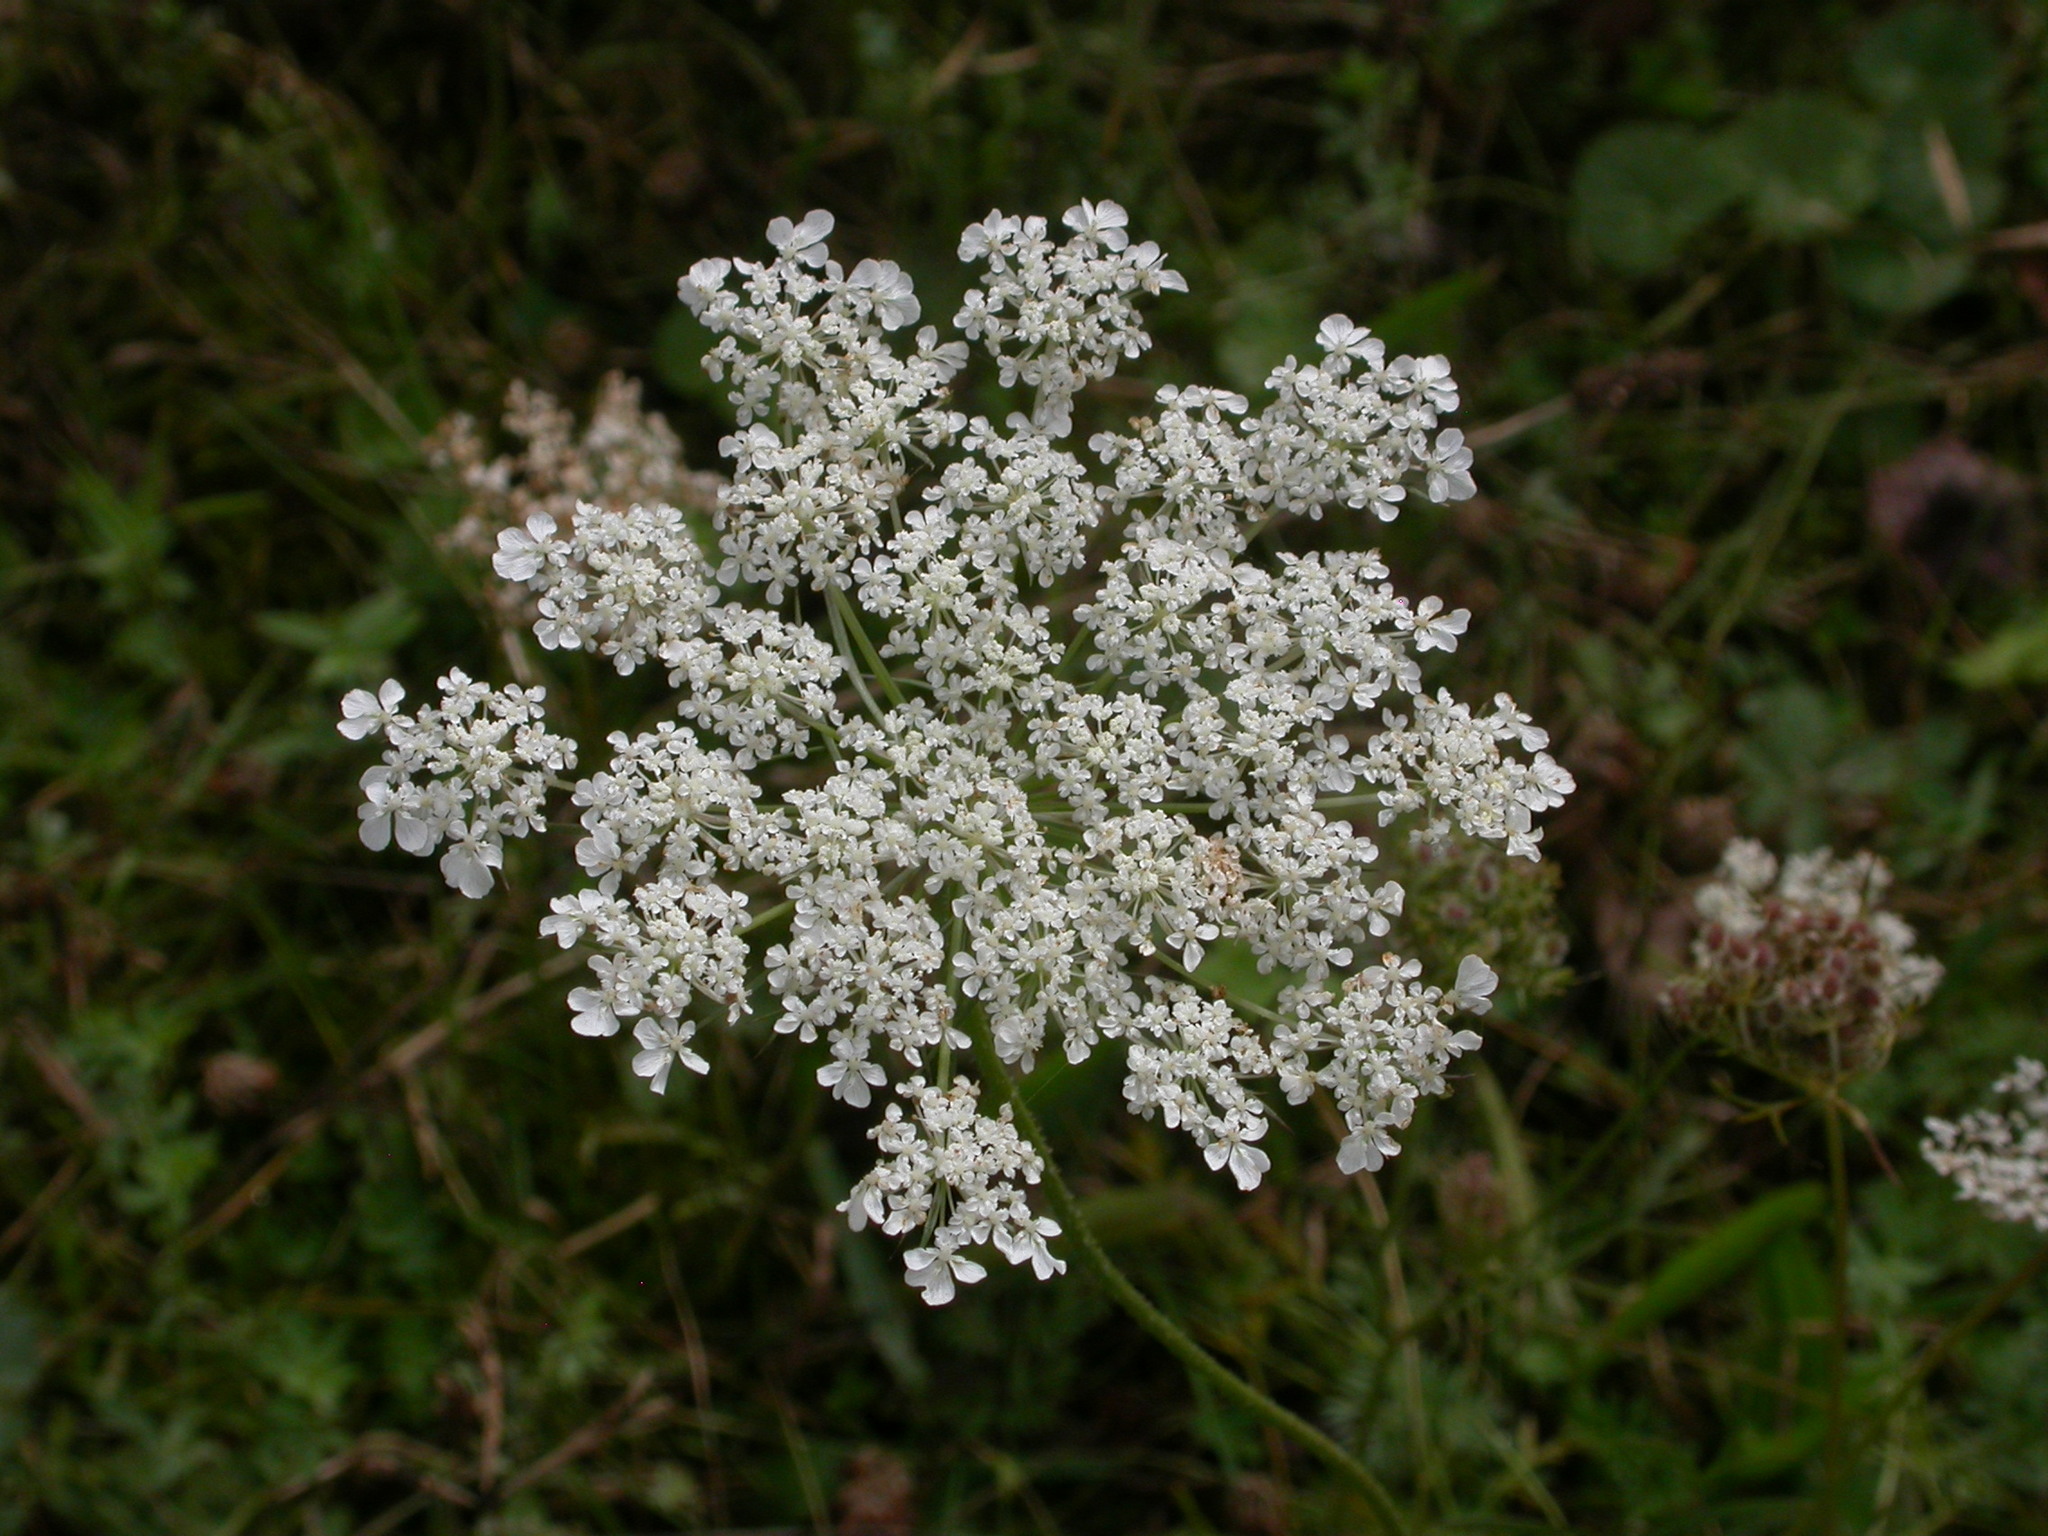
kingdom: Plantae
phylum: Tracheophyta
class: Magnoliopsida
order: Apiales
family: Apiaceae
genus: Daucus
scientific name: Daucus carota
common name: Wild carrot
